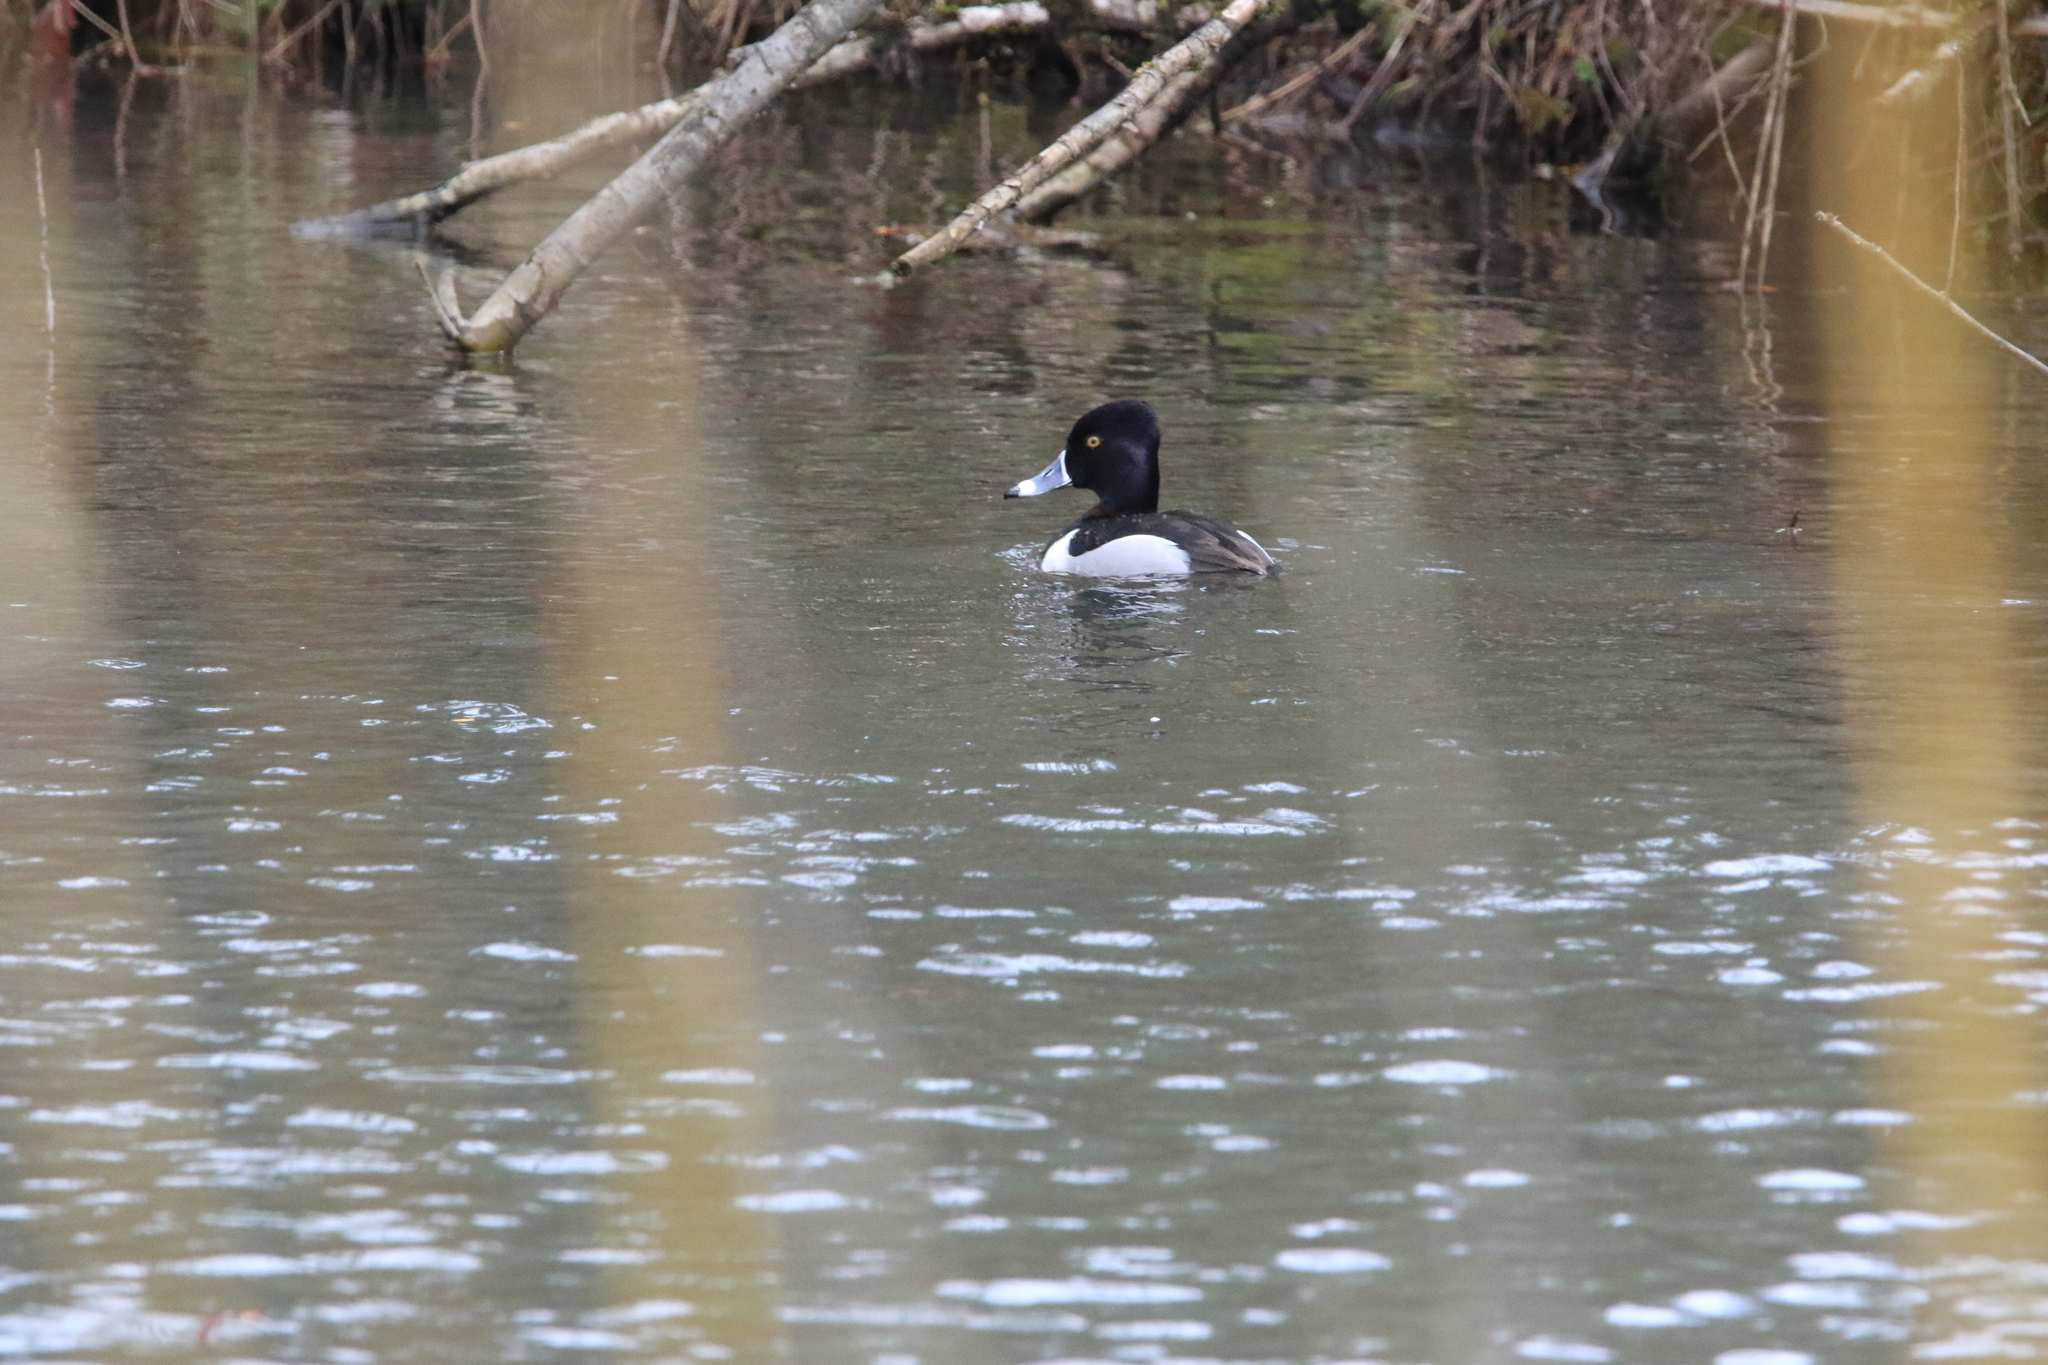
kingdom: Animalia
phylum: Chordata
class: Aves
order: Anseriformes
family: Anatidae
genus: Aythya
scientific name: Aythya collaris
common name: Ring-necked duck
